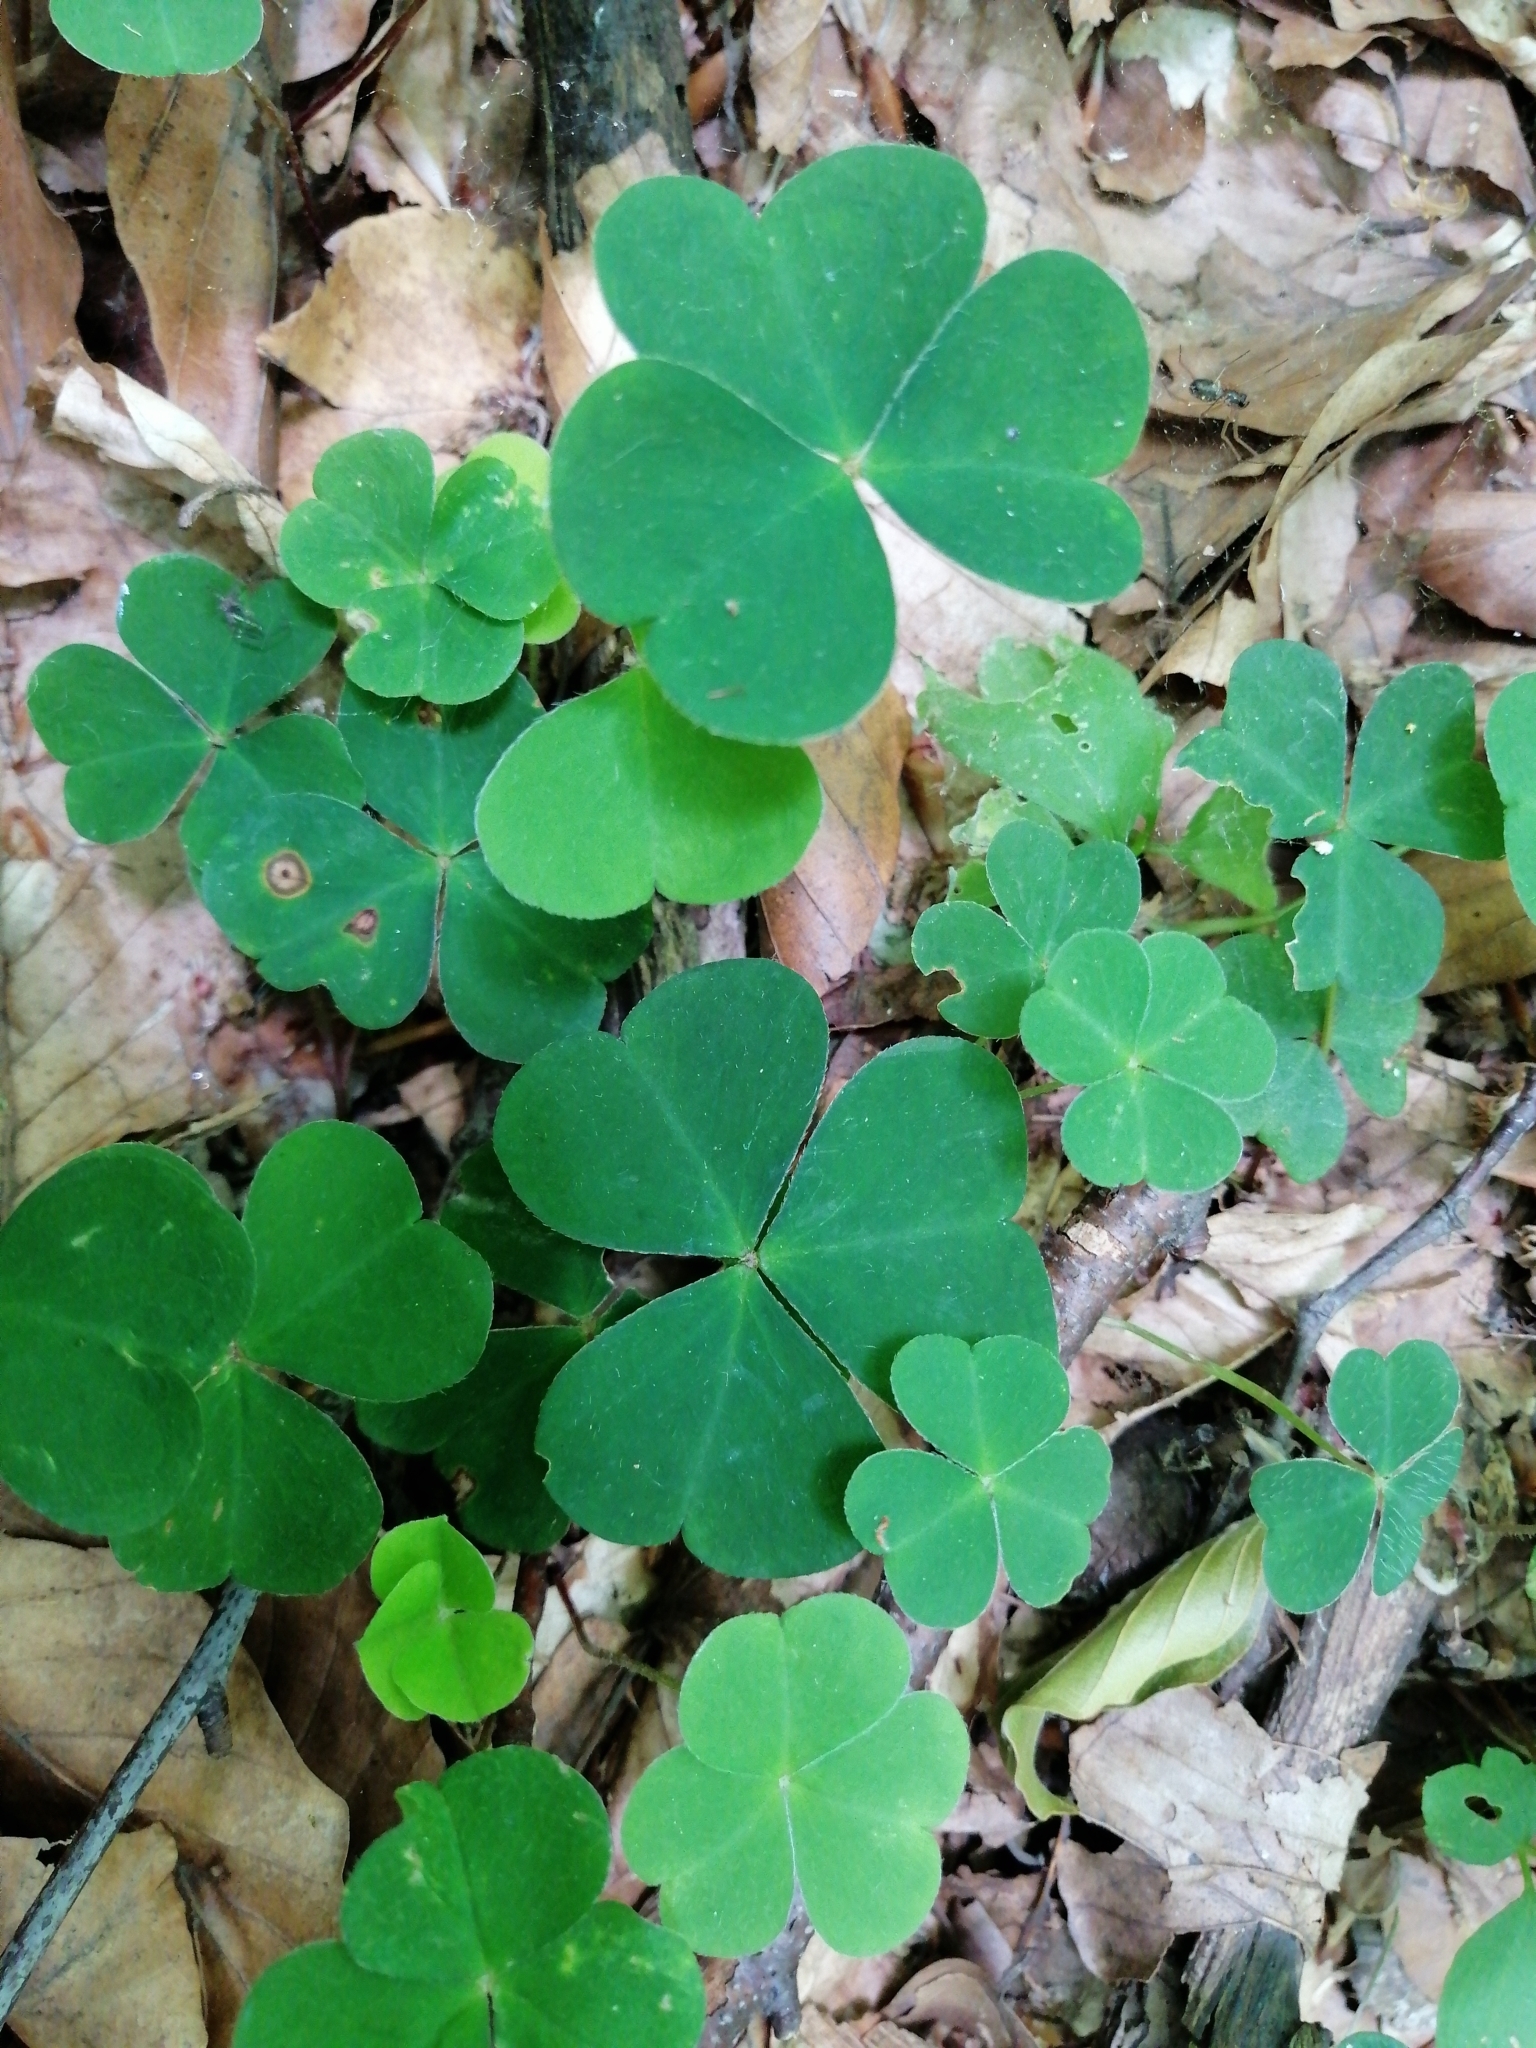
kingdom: Plantae
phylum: Tracheophyta
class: Magnoliopsida
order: Oxalidales
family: Oxalidaceae
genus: Oxalis
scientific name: Oxalis acetosella
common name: Wood-sorrel
